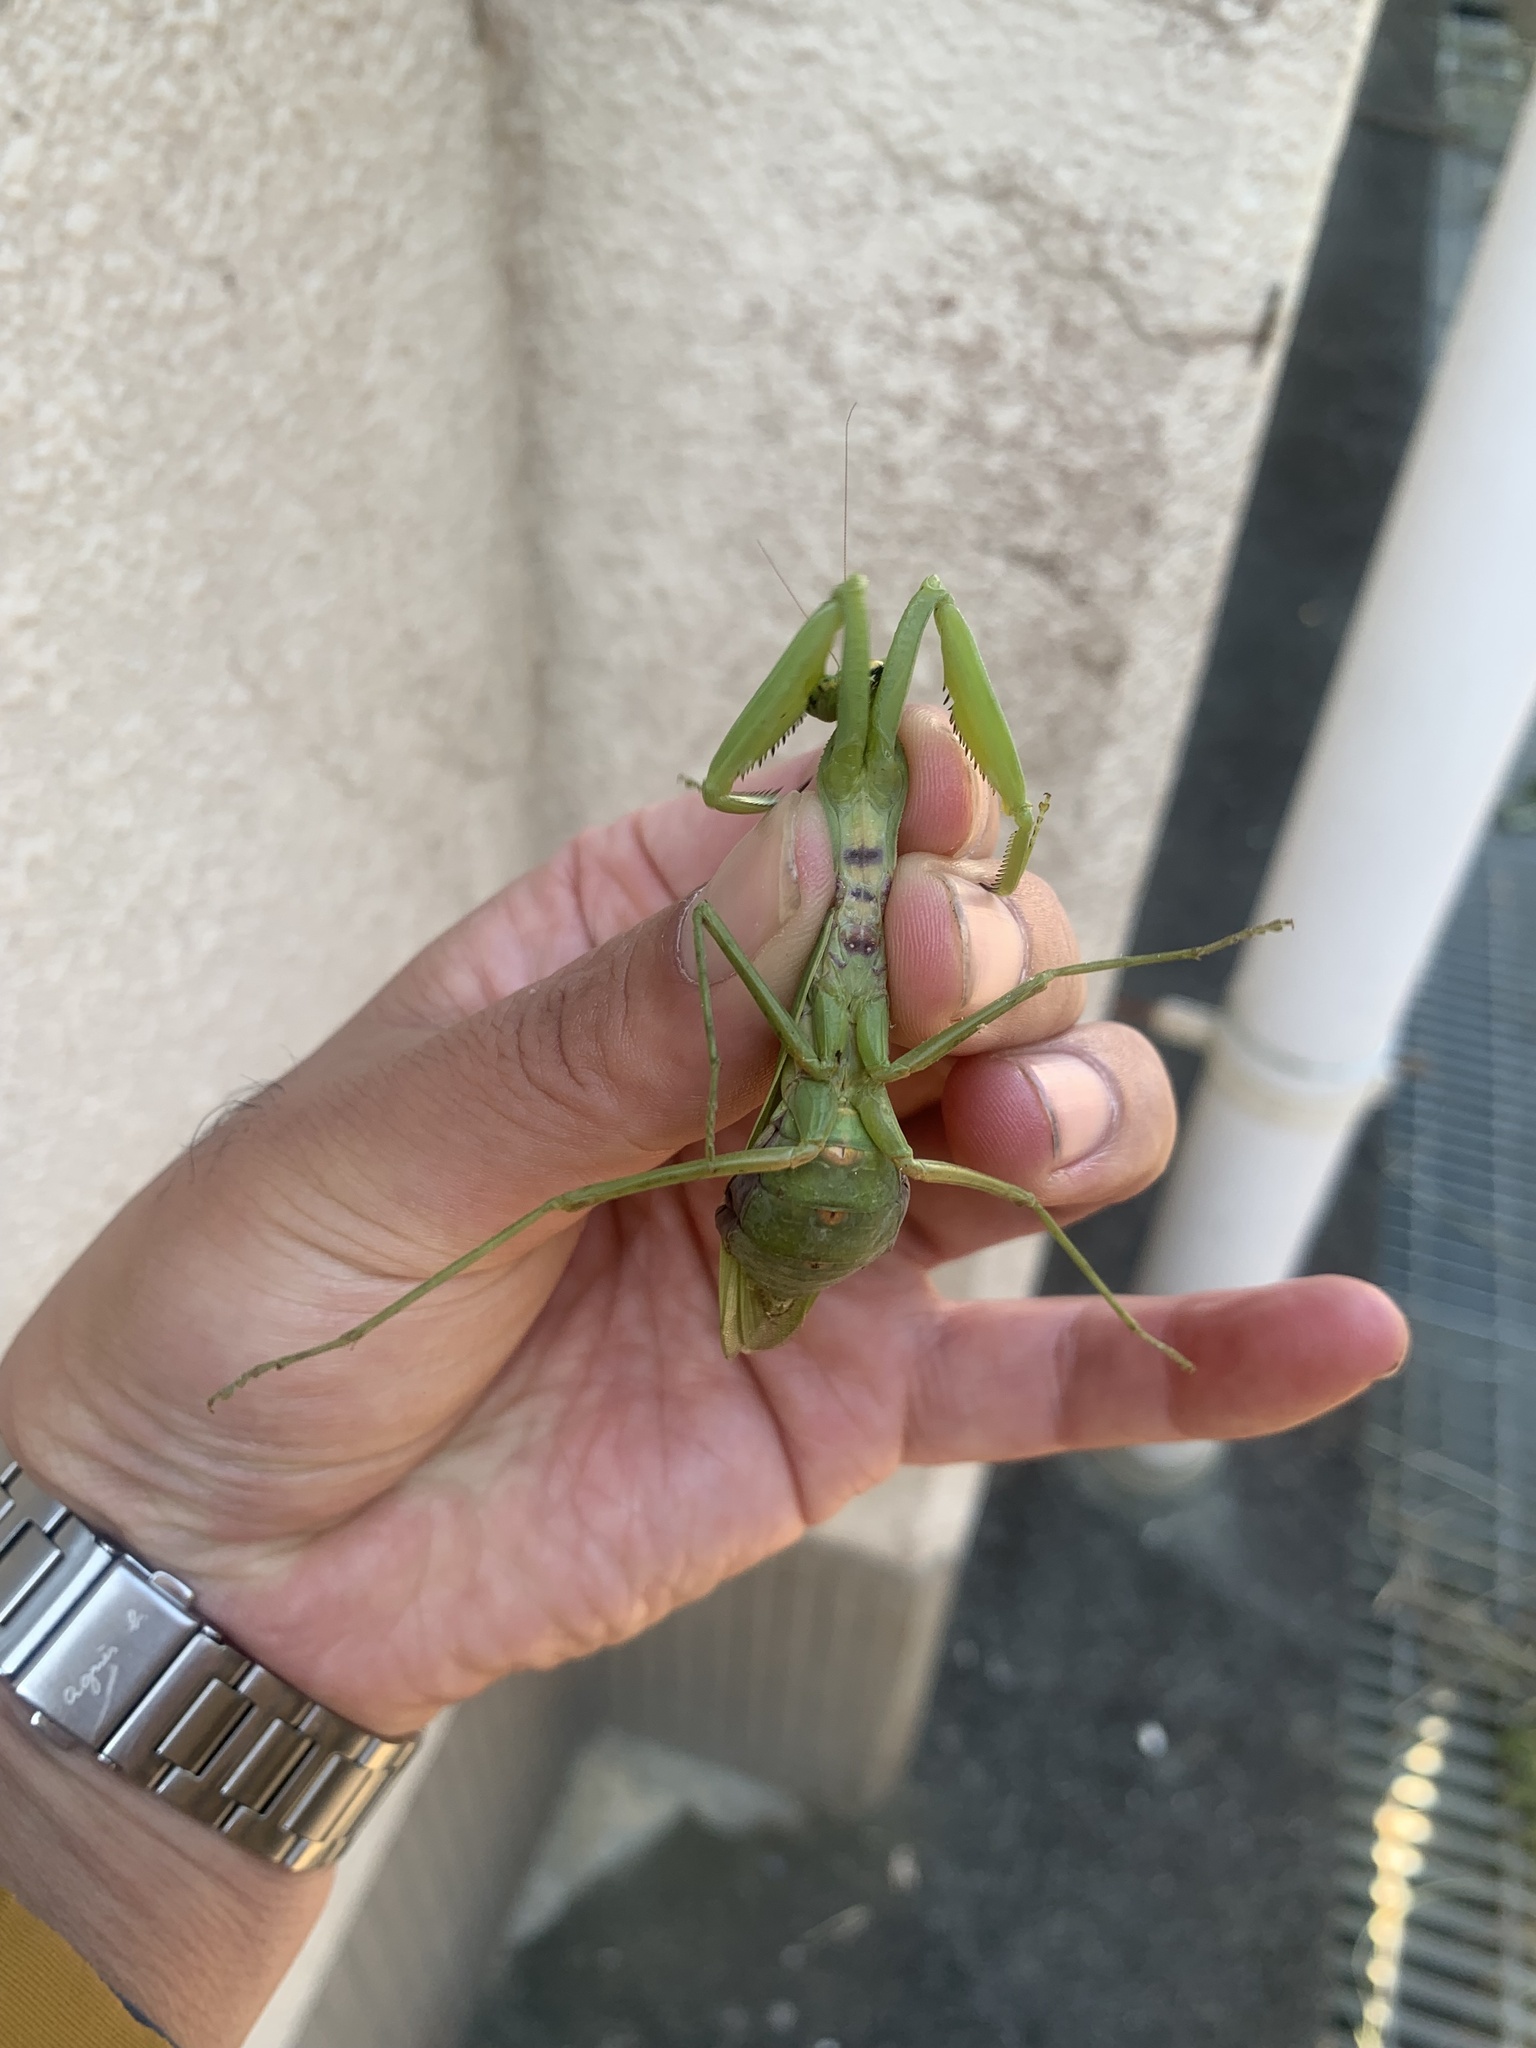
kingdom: Animalia
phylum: Arthropoda
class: Insecta
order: Mantodea
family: Mantidae
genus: Hierodula
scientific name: Hierodula patellifera
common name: Asian mantis
